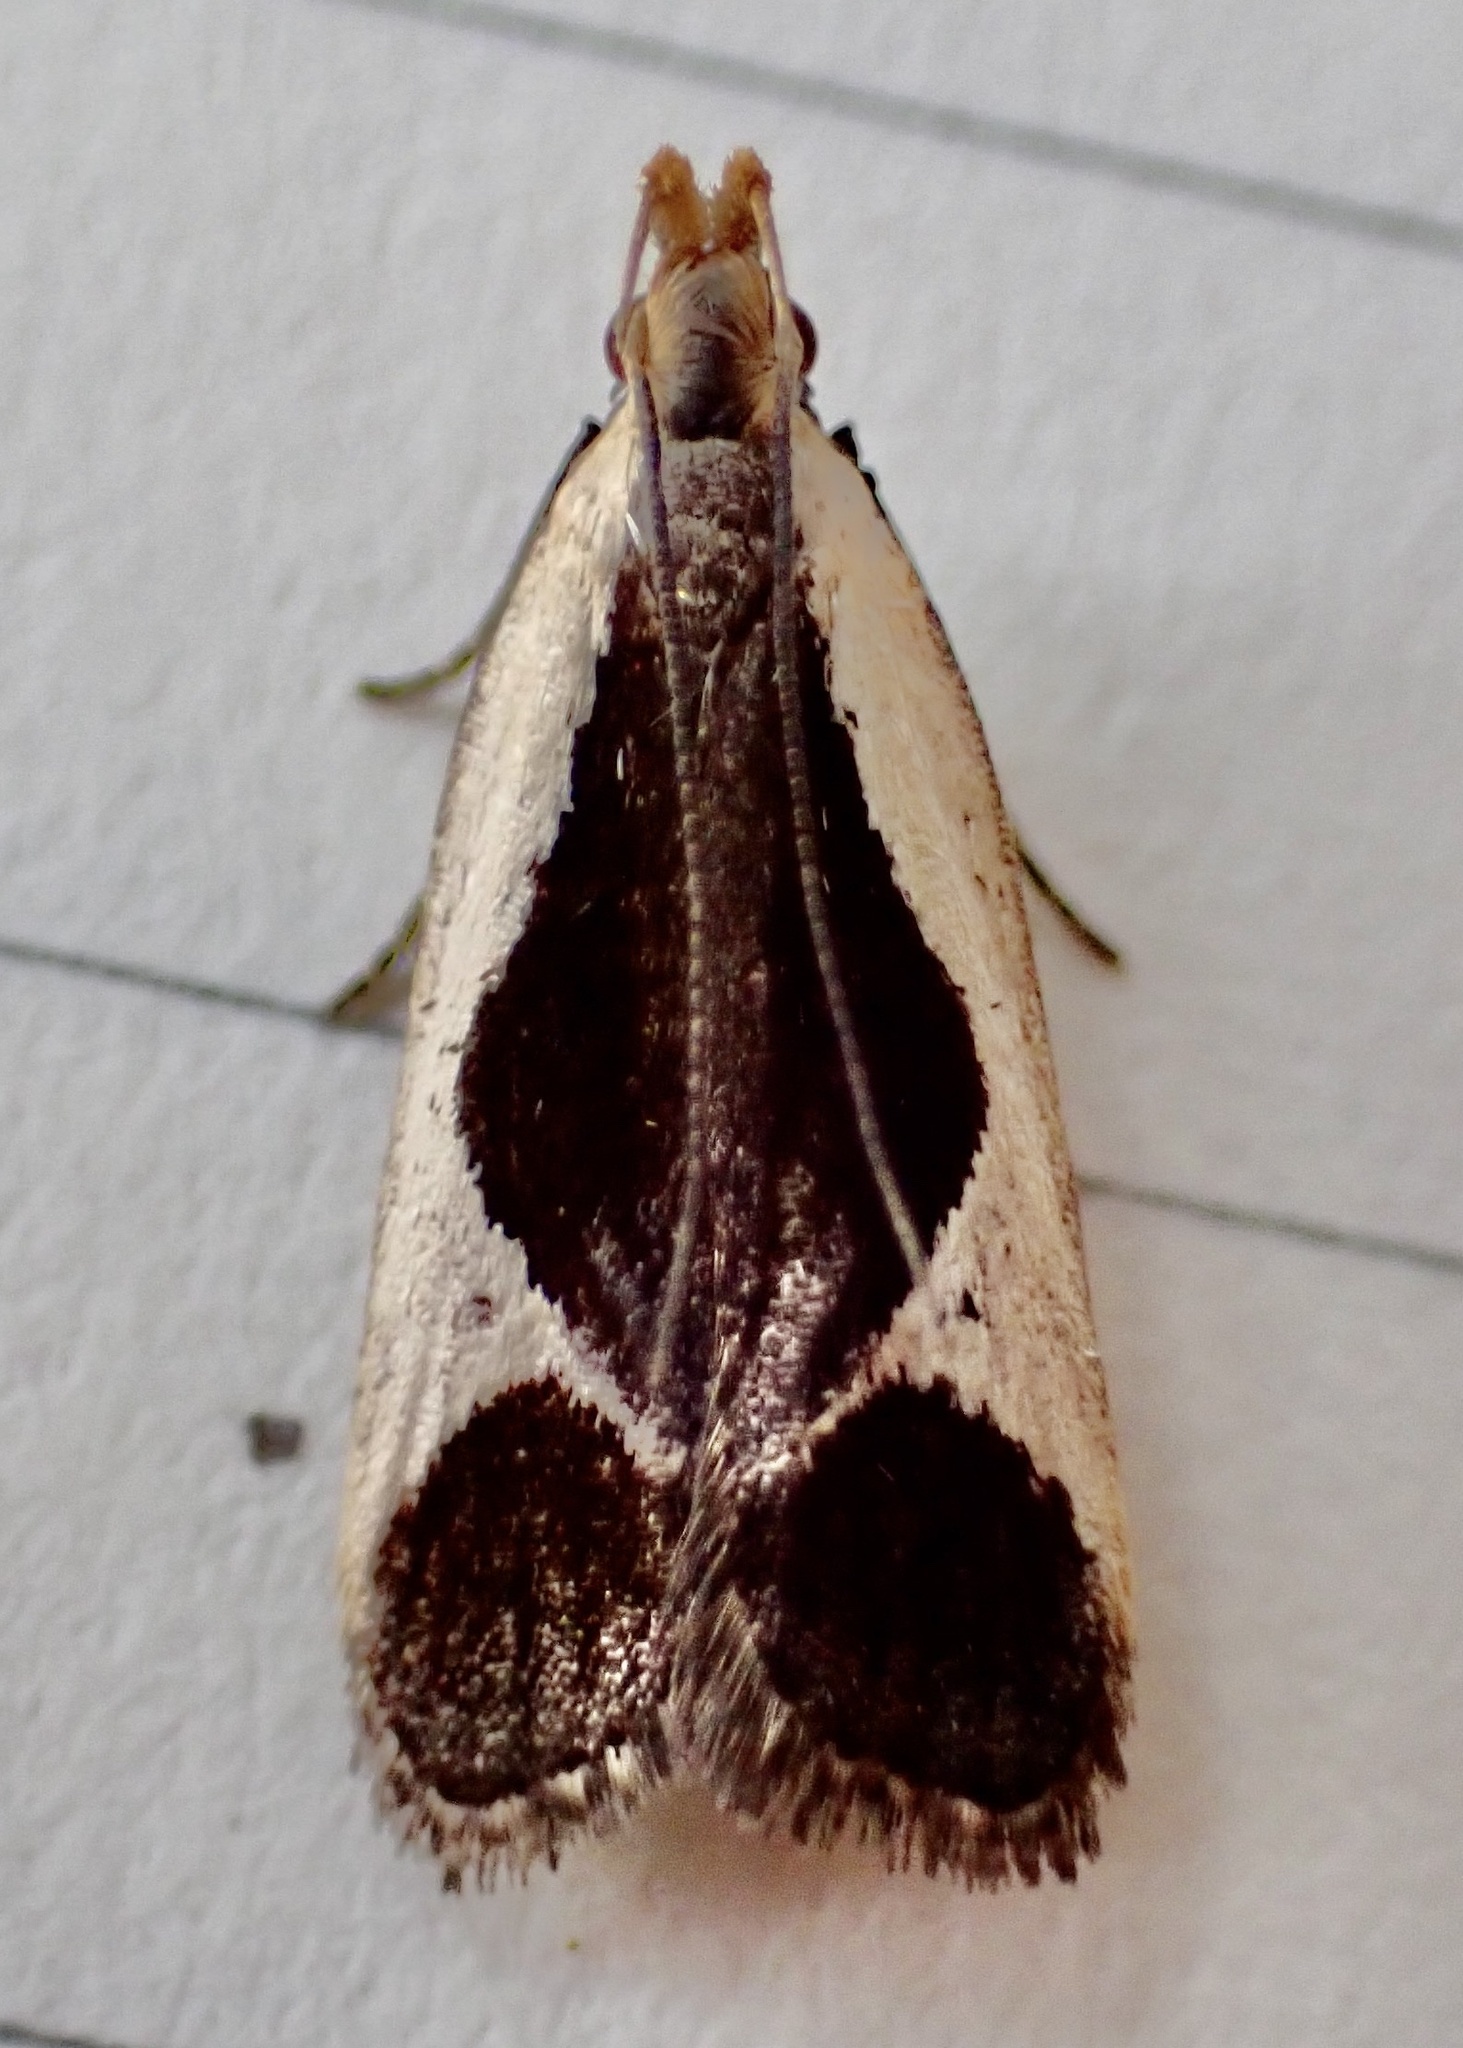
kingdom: Animalia
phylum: Arthropoda
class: Insecta
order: Lepidoptera
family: Gelechiidae
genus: Dichomeris
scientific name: Dichomeris flavocostella
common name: Cream-edged dichomeris moth
